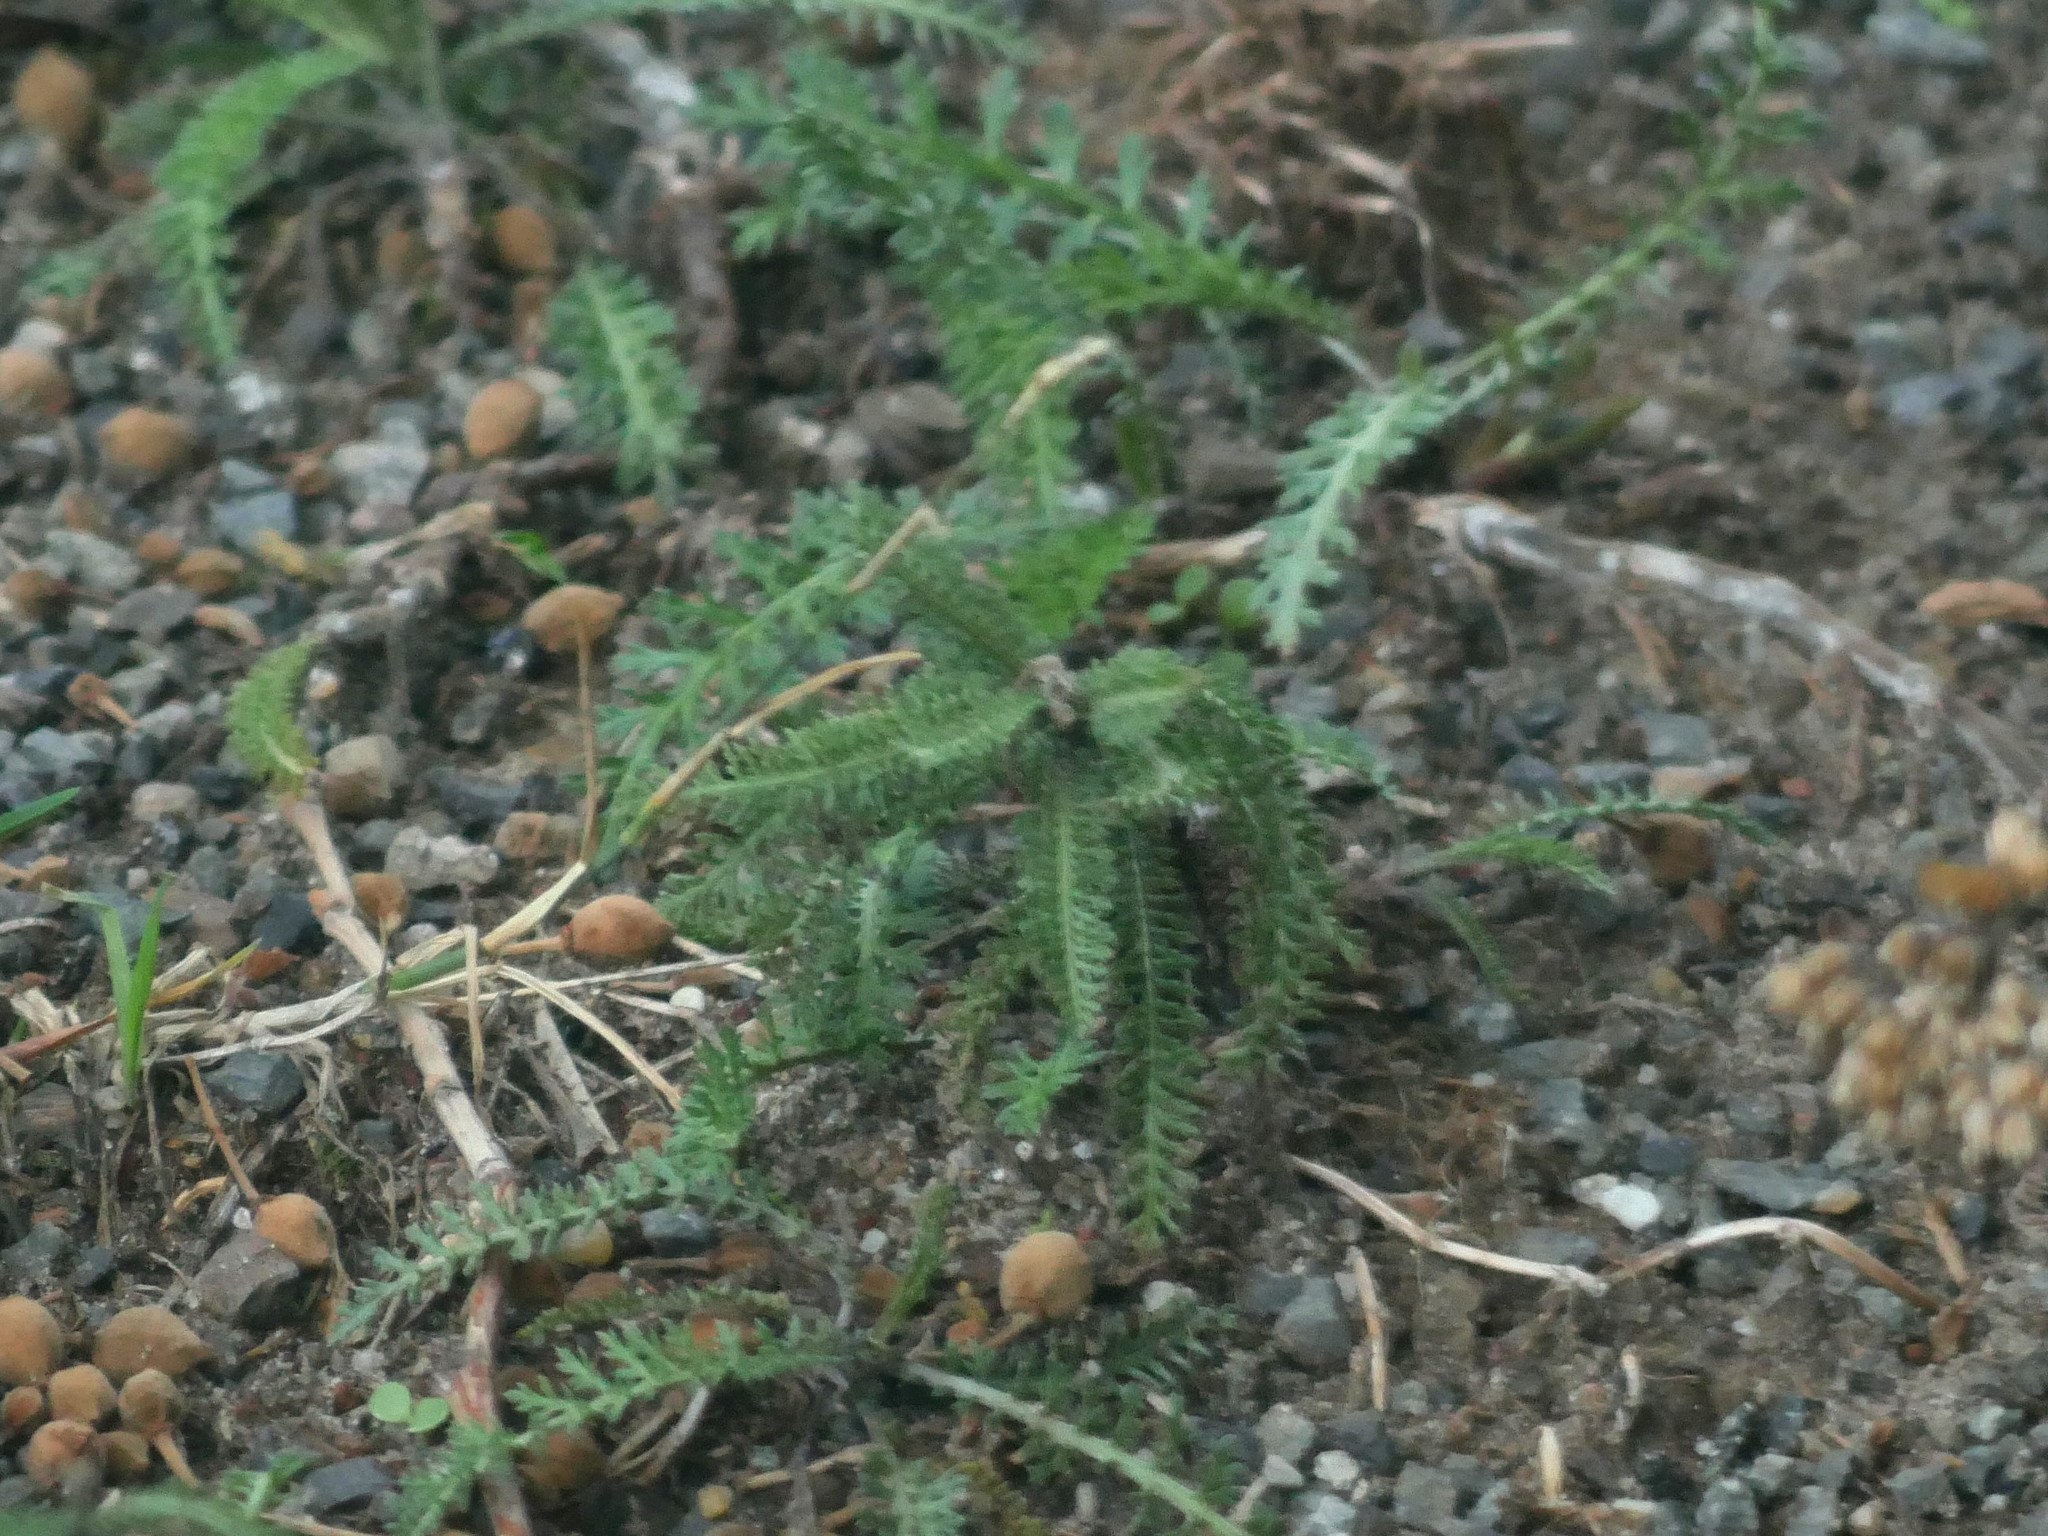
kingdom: Plantae
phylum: Tracheophyta
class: Magnoliopsida
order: Asterales
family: Asteraceae
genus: Achillea
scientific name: Achillea millefolium
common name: Yarrow
